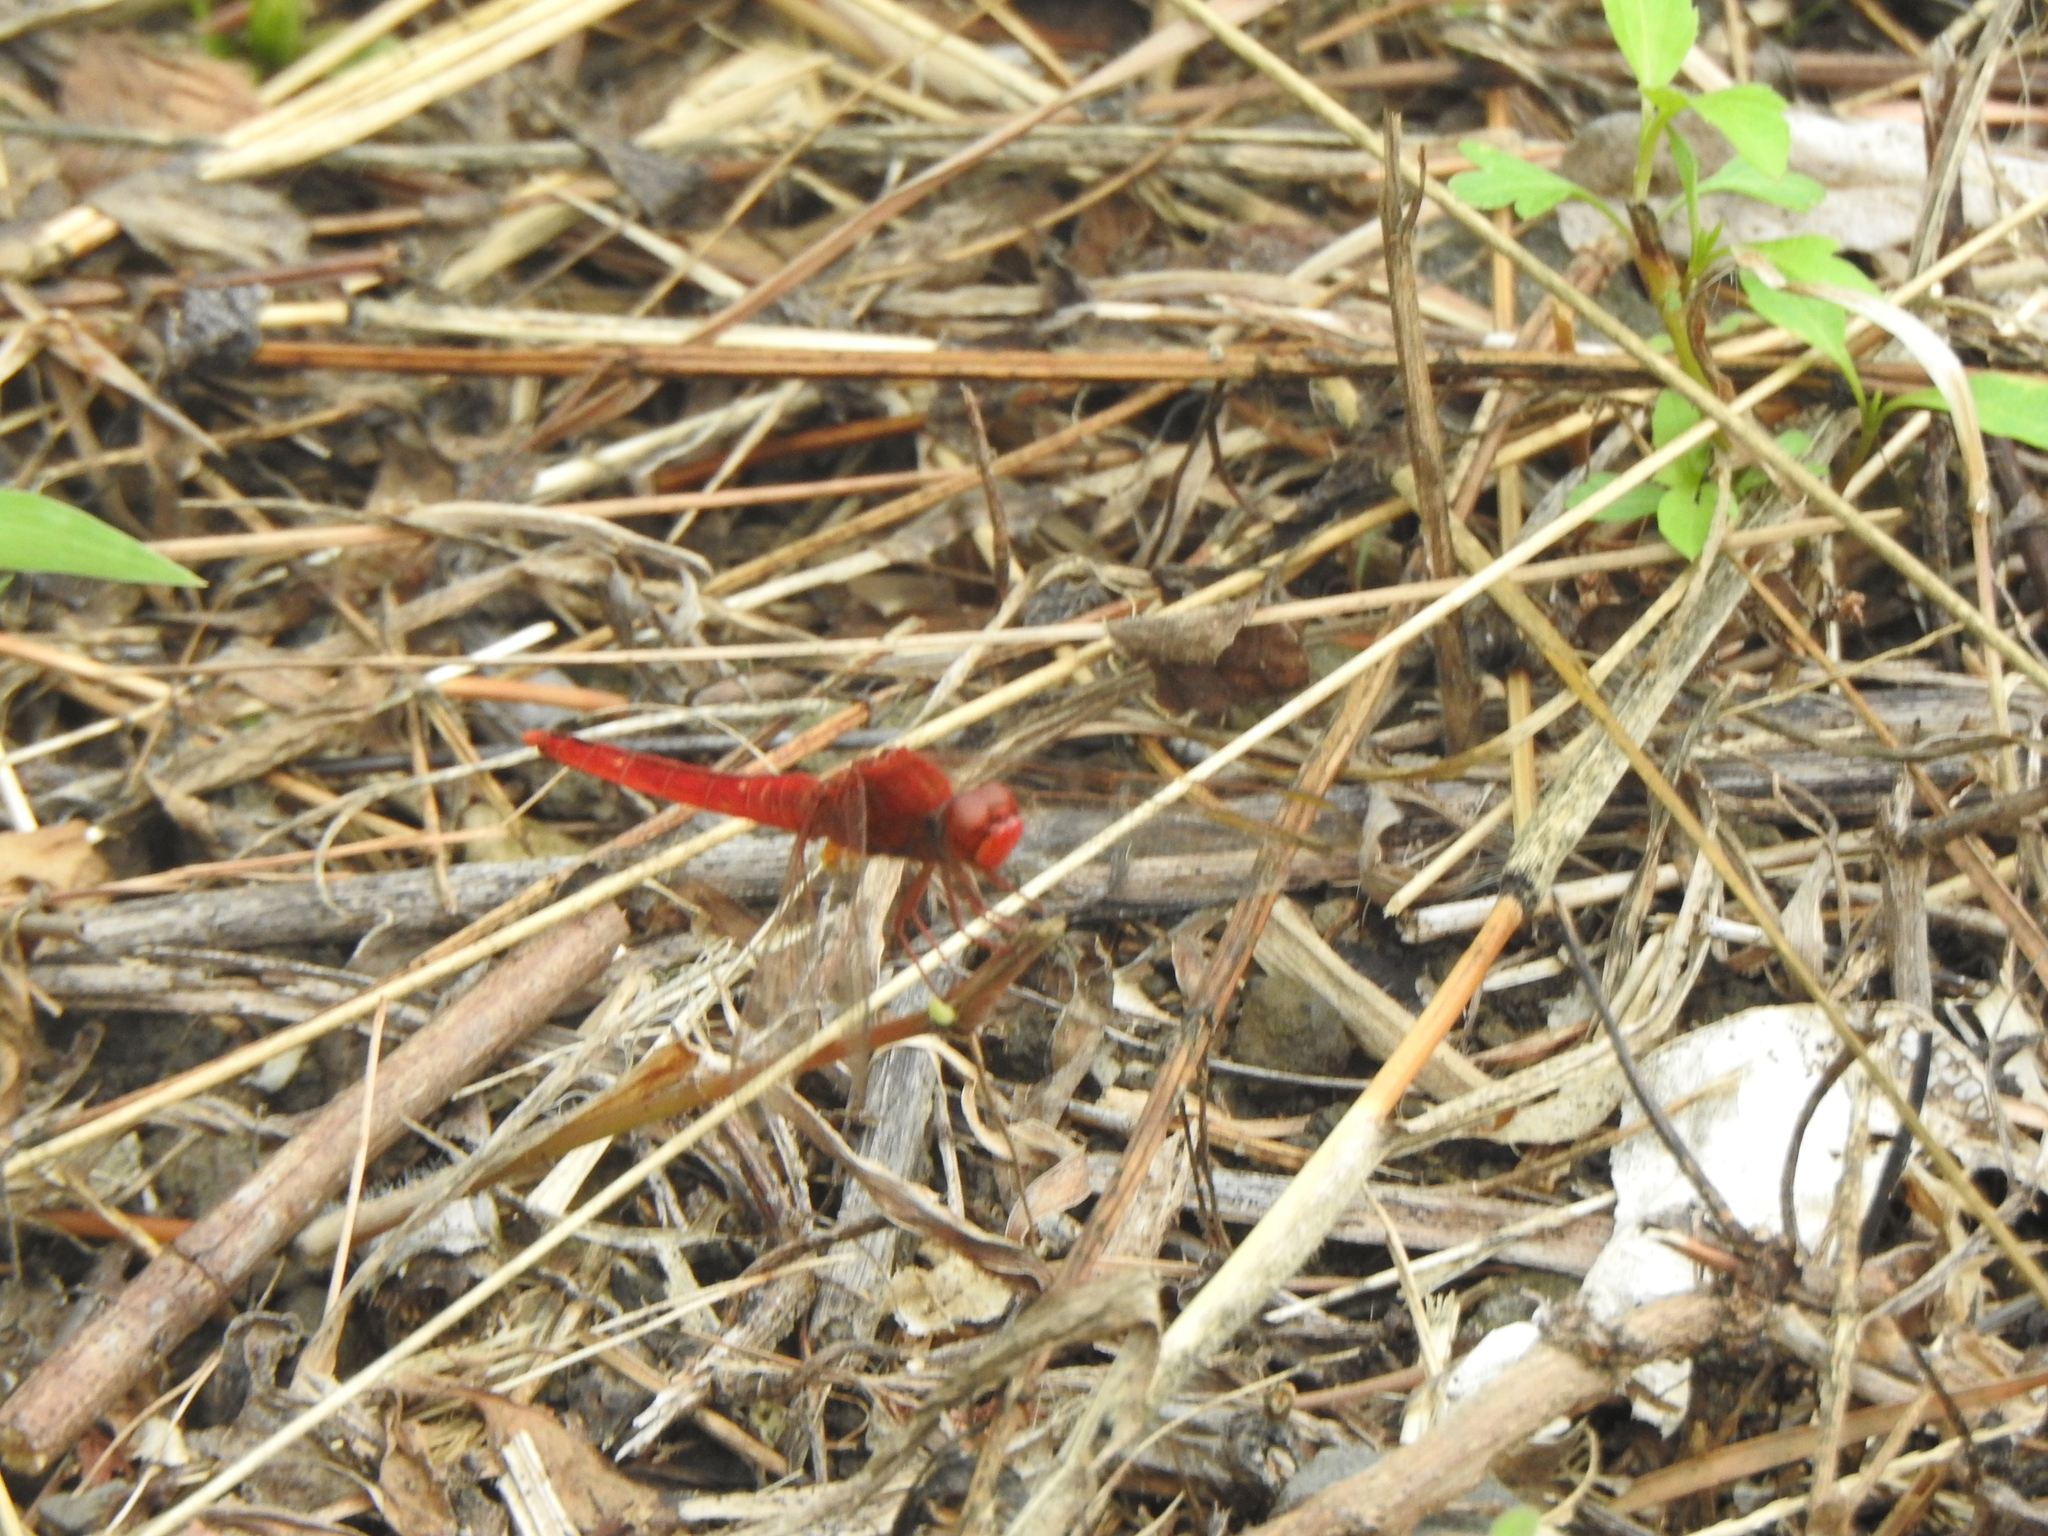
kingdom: Animalia
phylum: Arthropoda
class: Insecta
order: Odonata
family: Libellulidae
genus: Crocothemis
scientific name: Crocothemis servilia
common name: Scarlet skimmer
